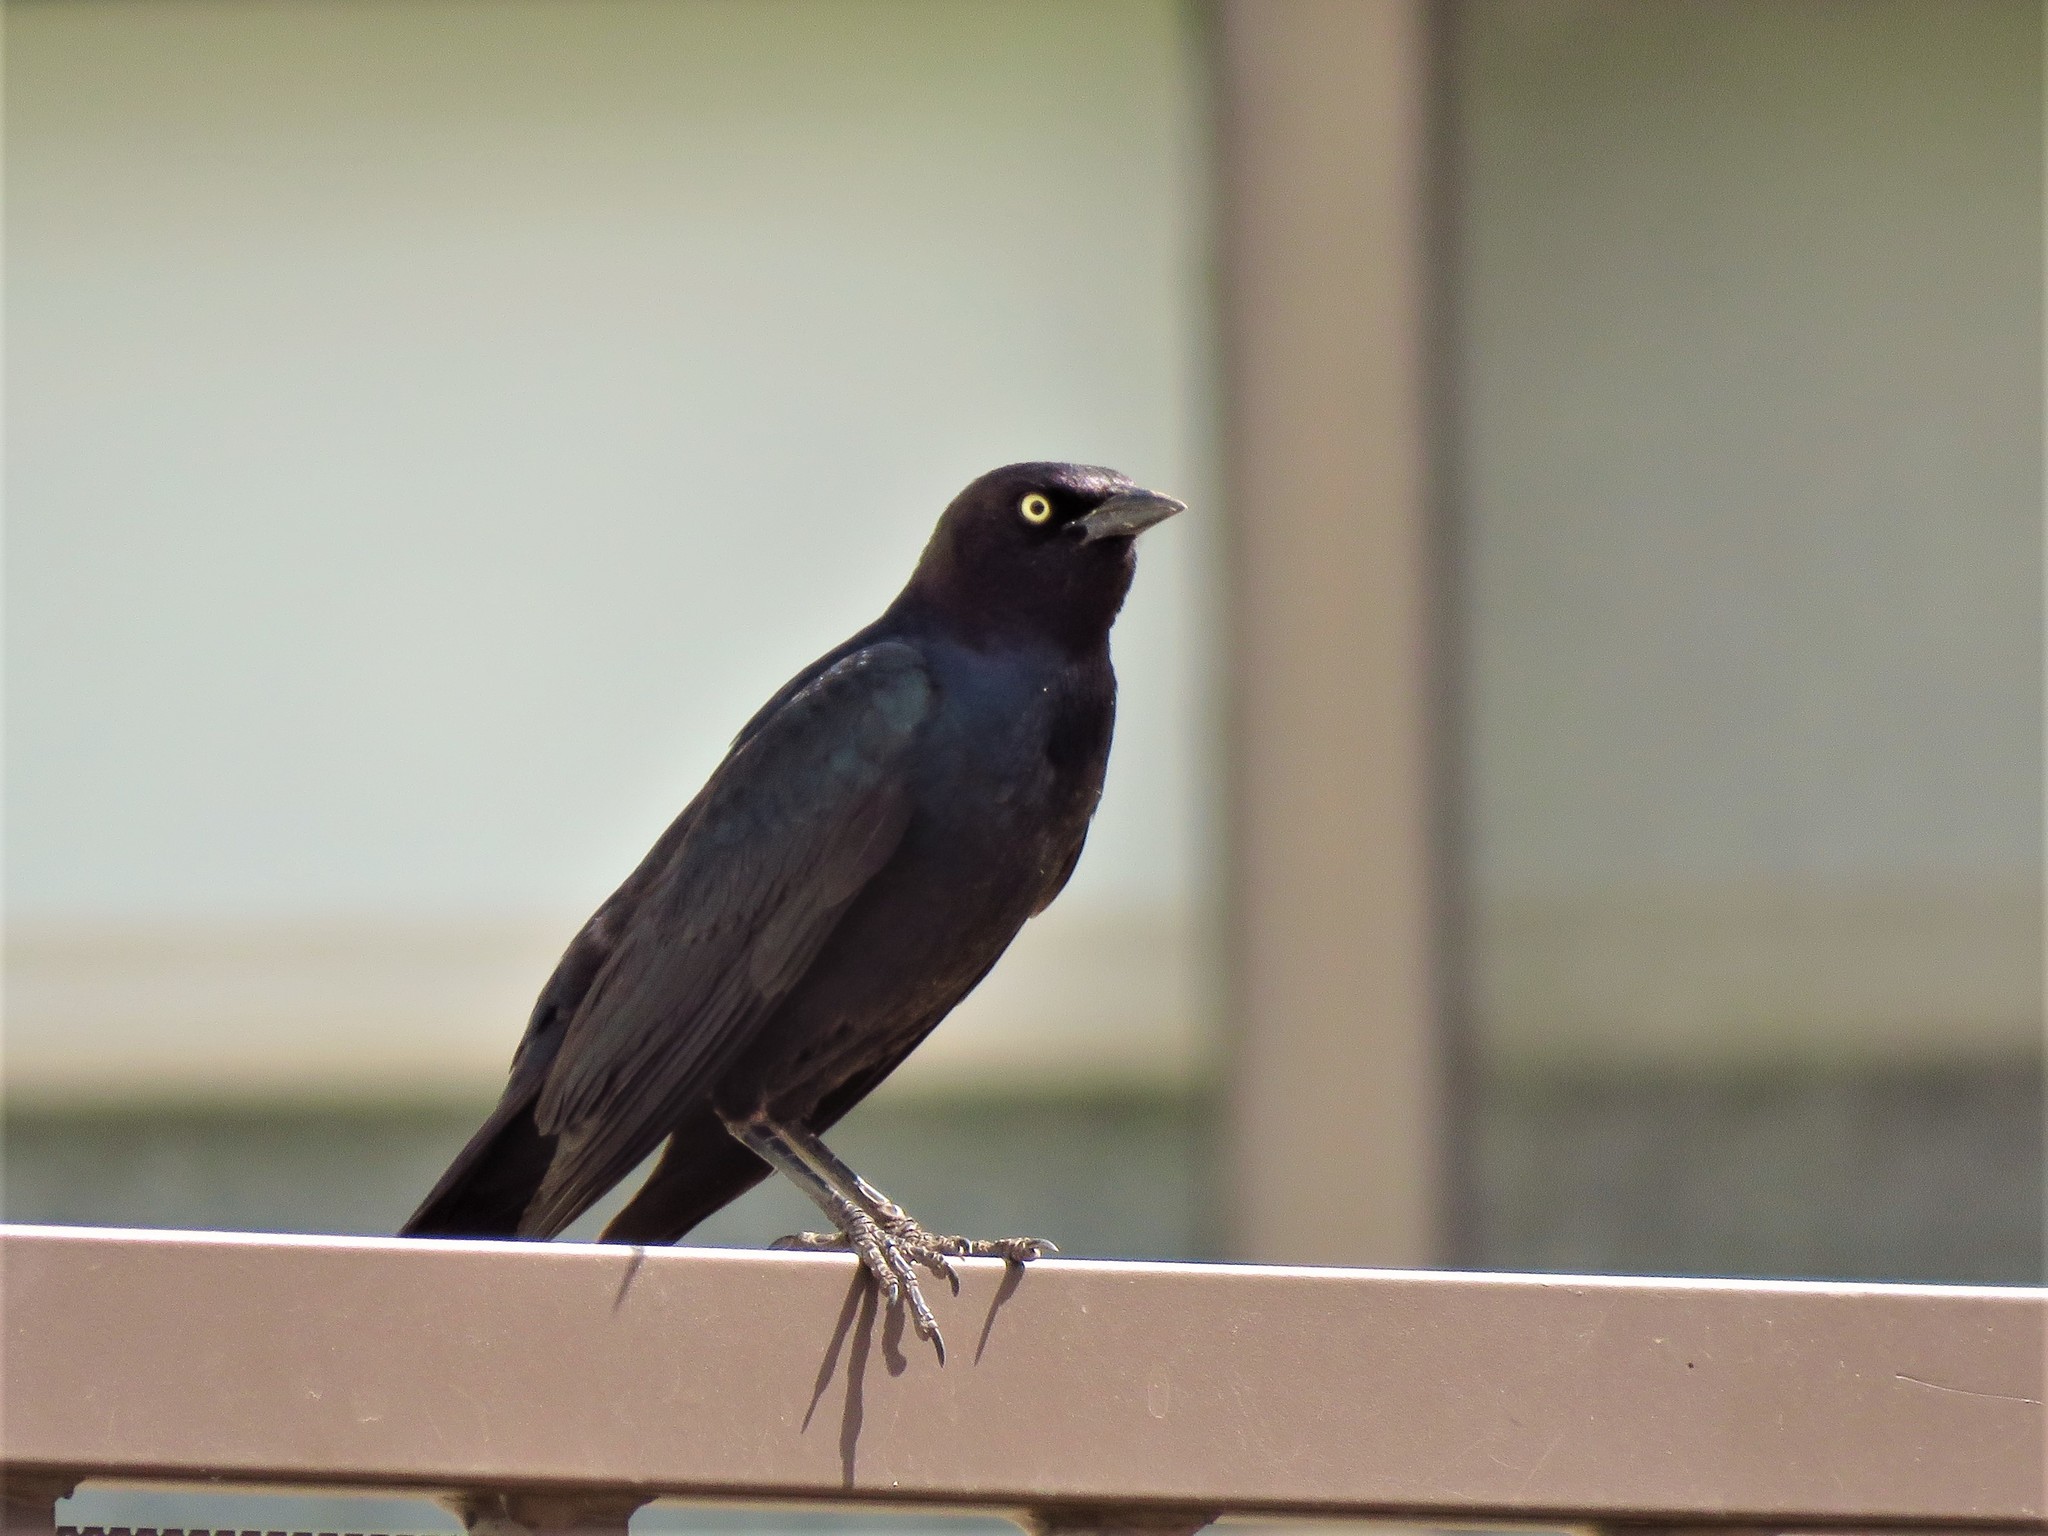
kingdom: Animalia
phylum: Chordata
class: Aves
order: Passeriformes
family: Icteridae
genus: Euphagus
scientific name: Euphagus cyanocephalus
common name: Brewer's blackbird
